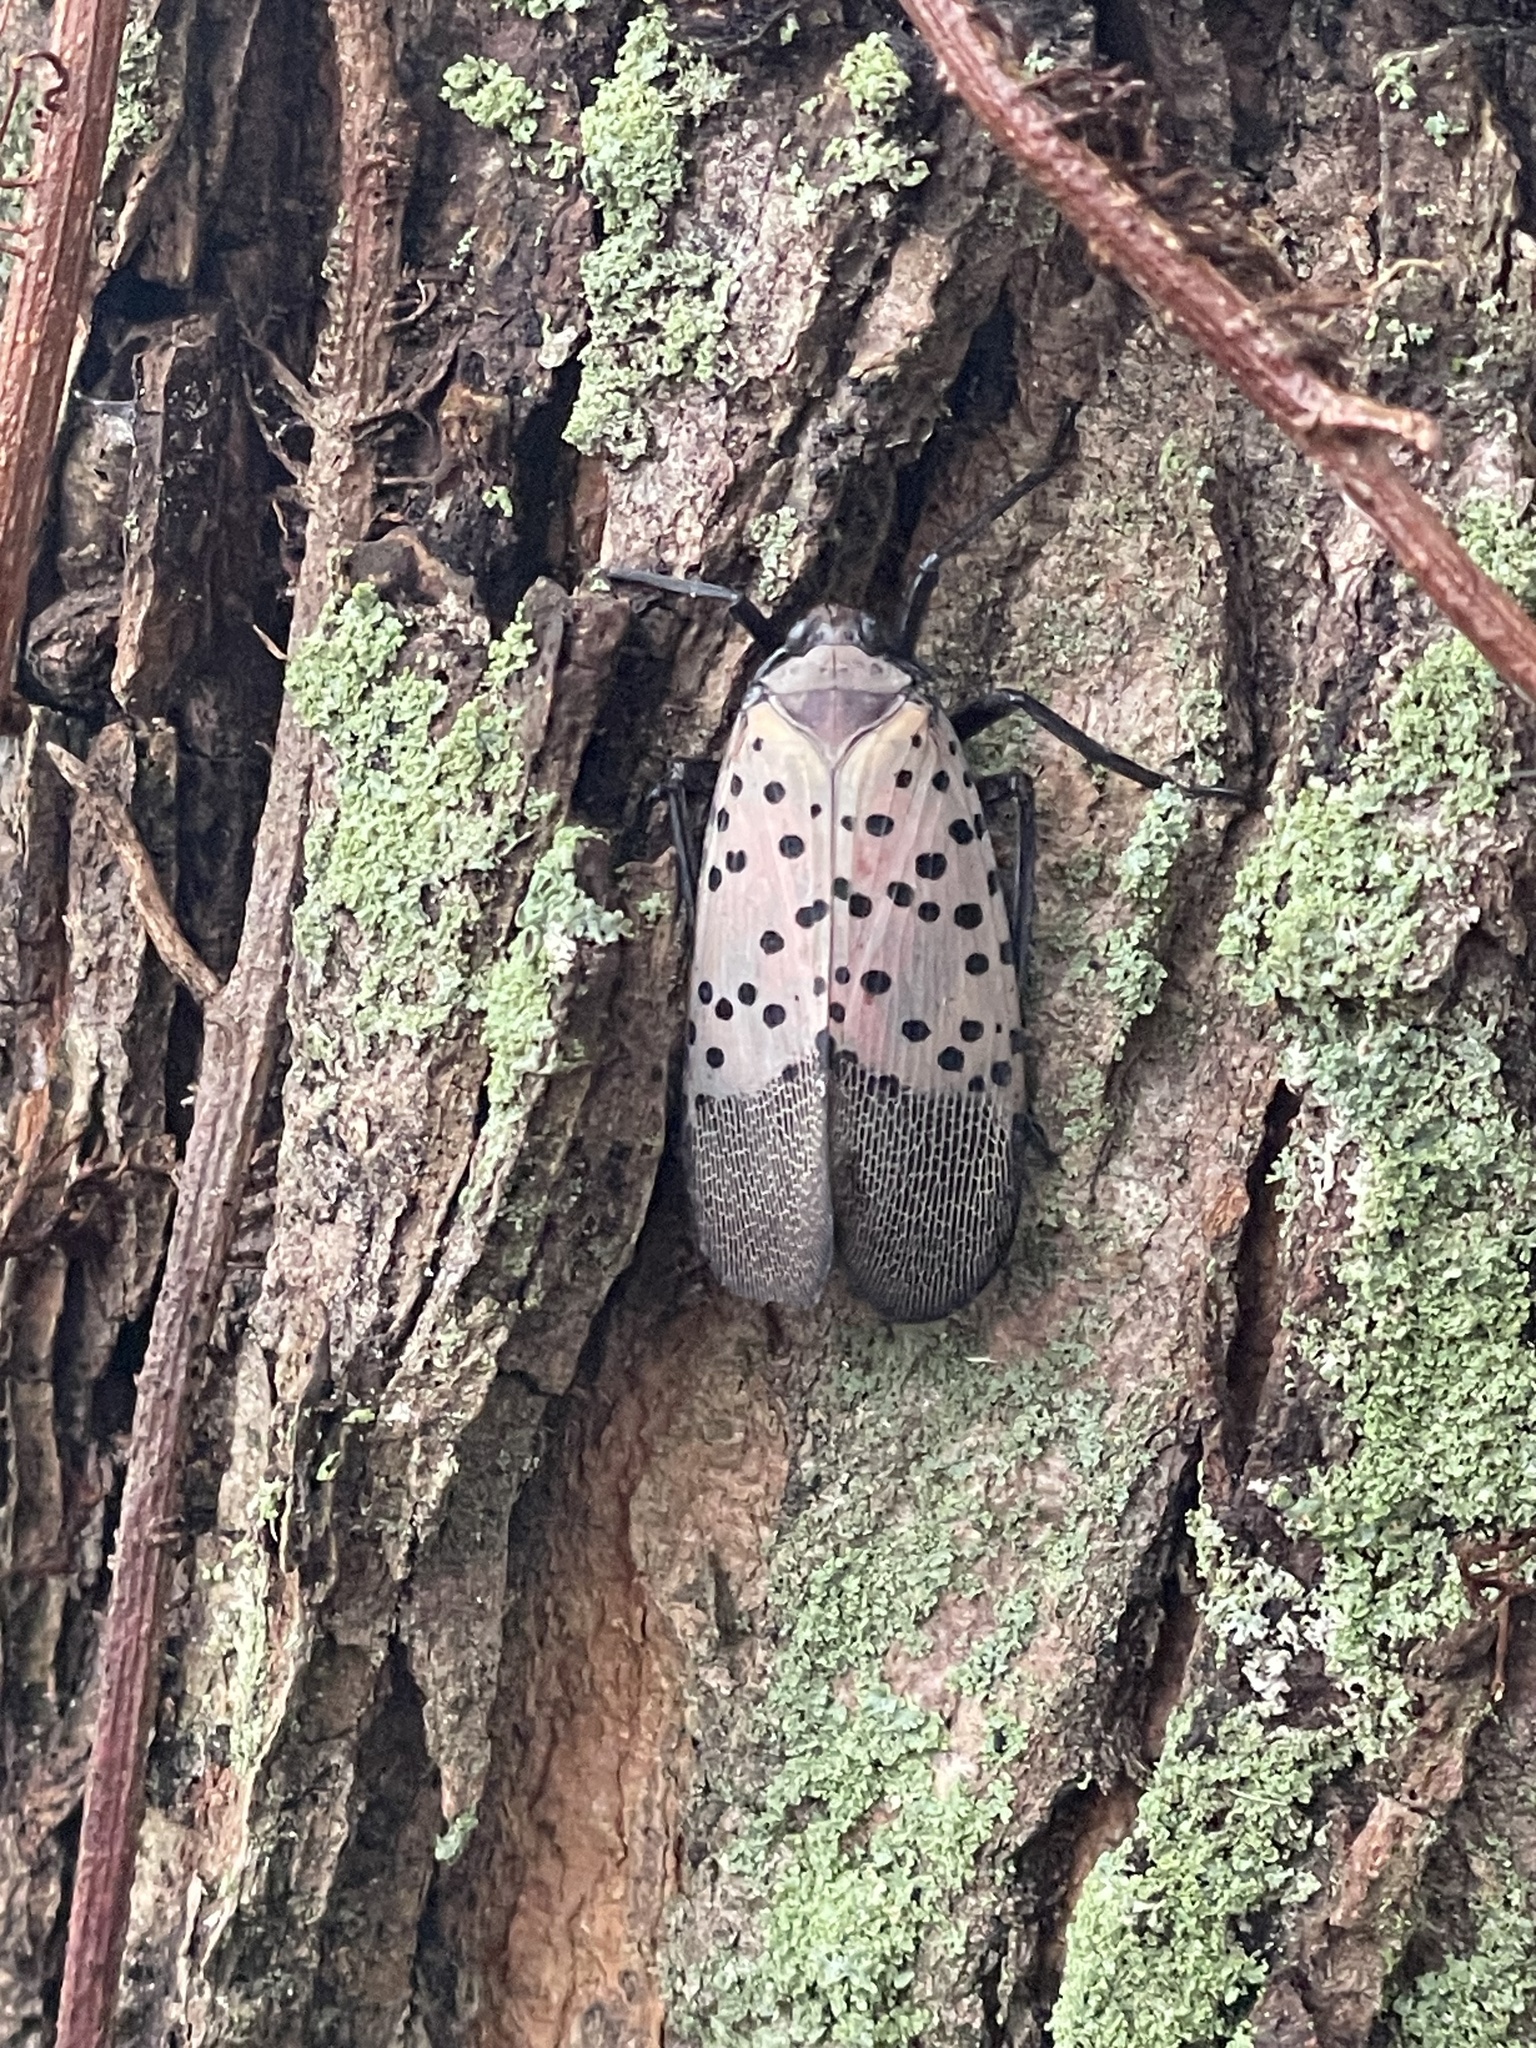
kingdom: Animalia
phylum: Arthropoda
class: Insecta
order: Hemiptera
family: Fulgoridae
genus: Lycorma
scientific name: Lycorma delicatula
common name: Spotted lanternfly
